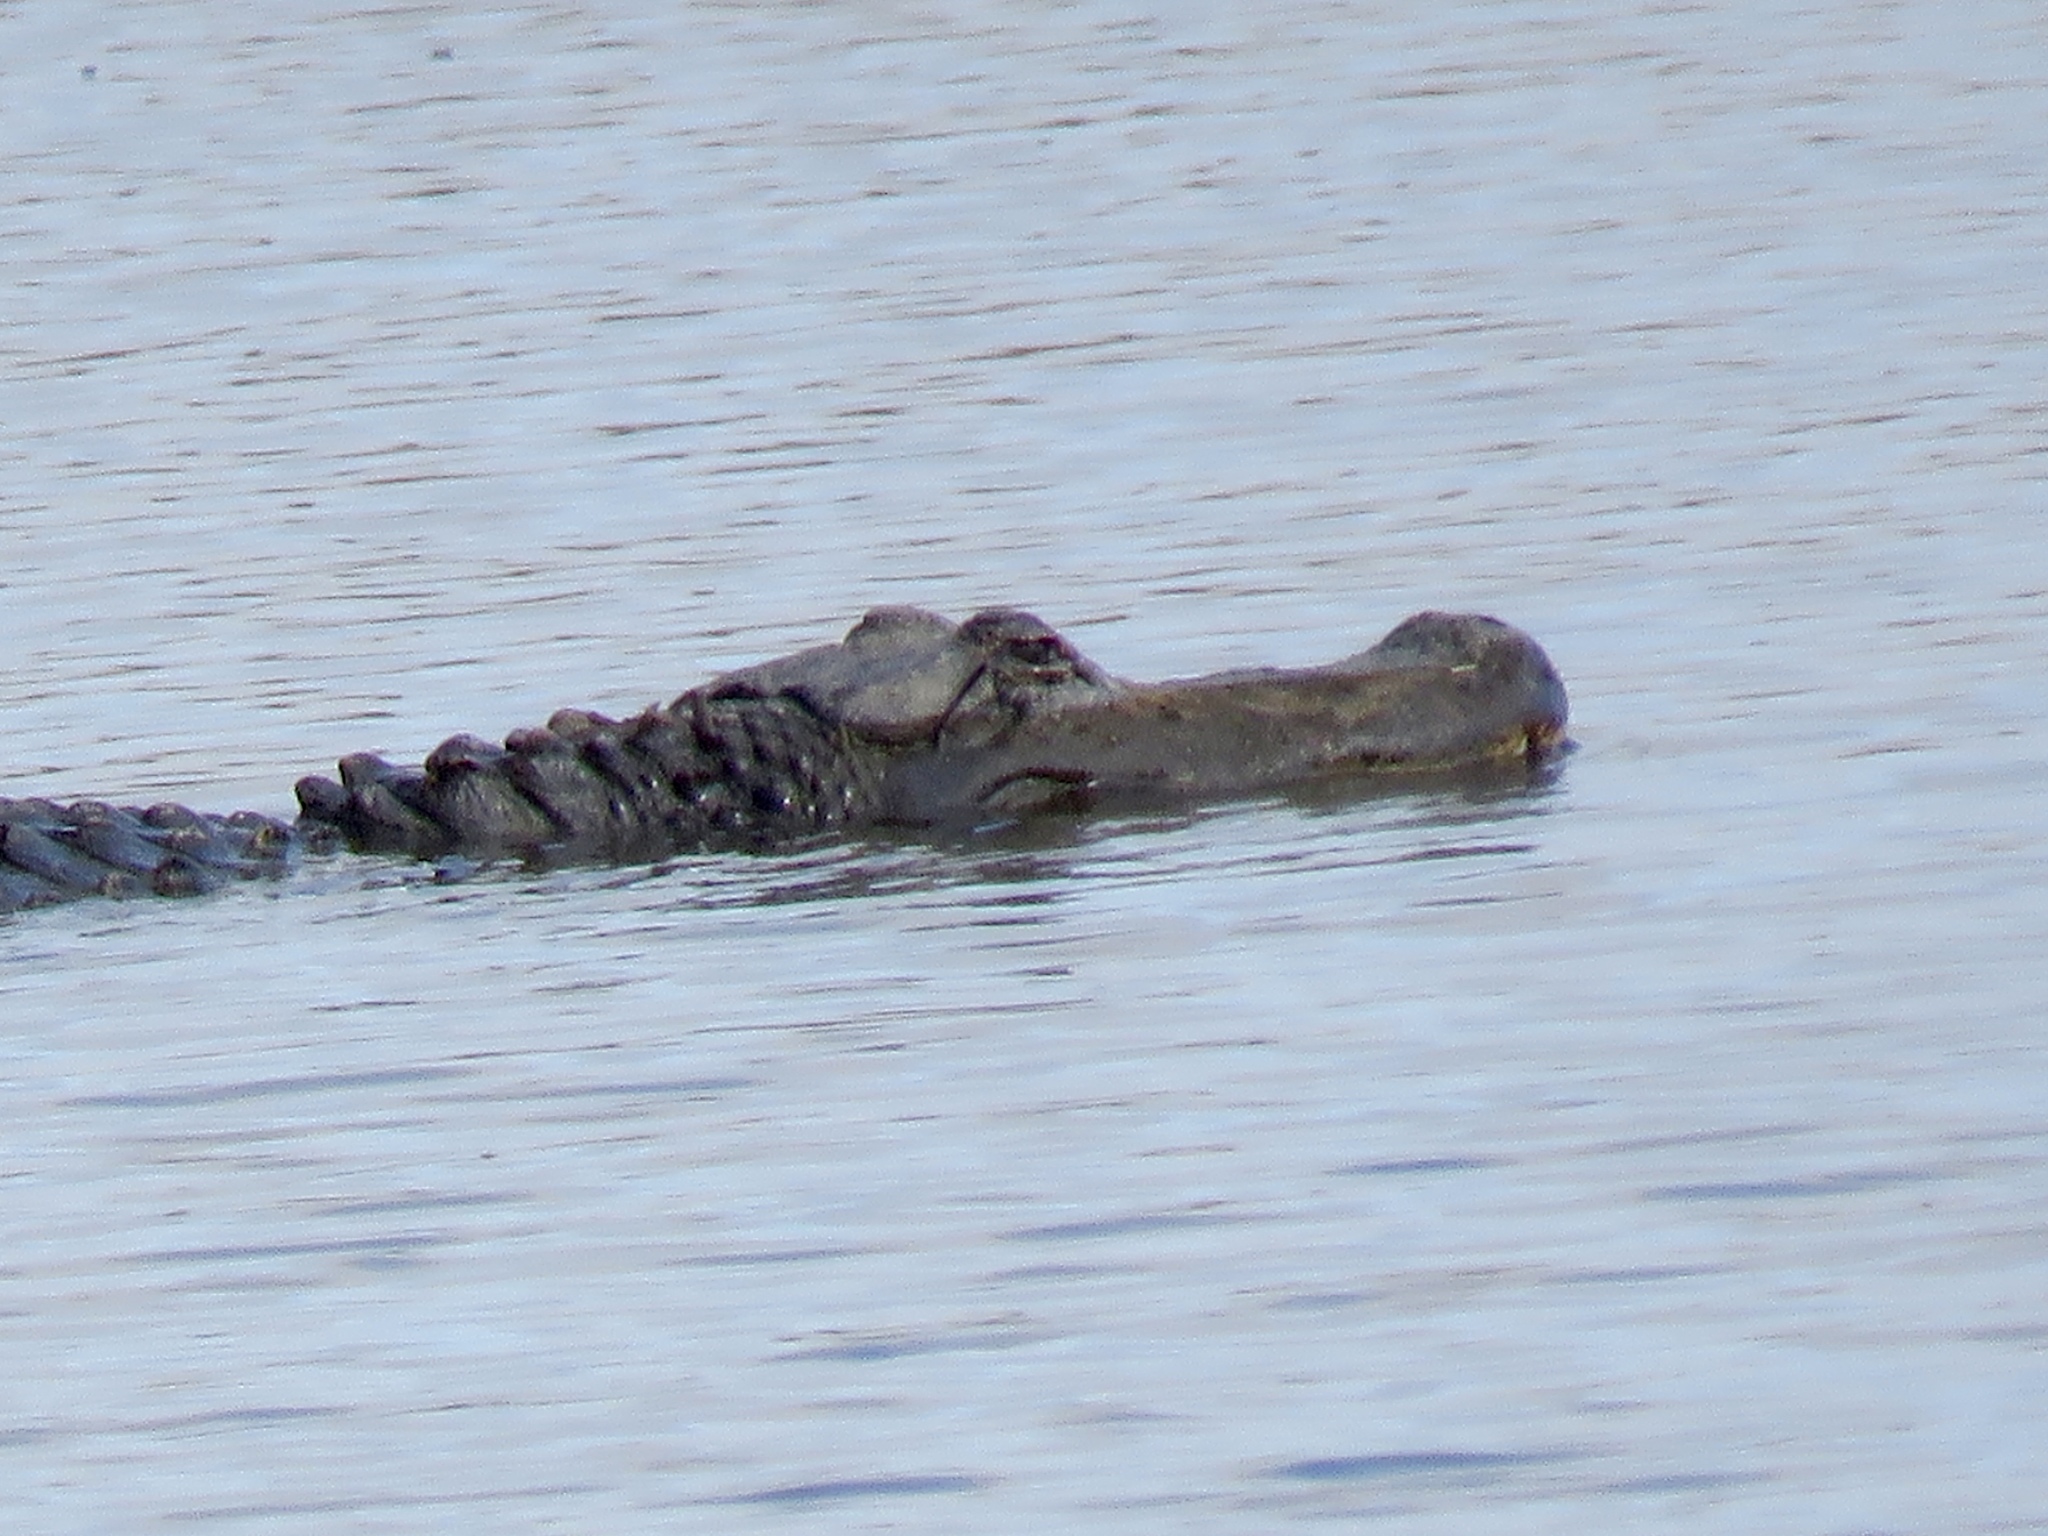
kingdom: Animalia
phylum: Chordata
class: Crocodylia
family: Alligatoridae
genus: Alligator
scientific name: Alligator mississippiensis
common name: American alligator
